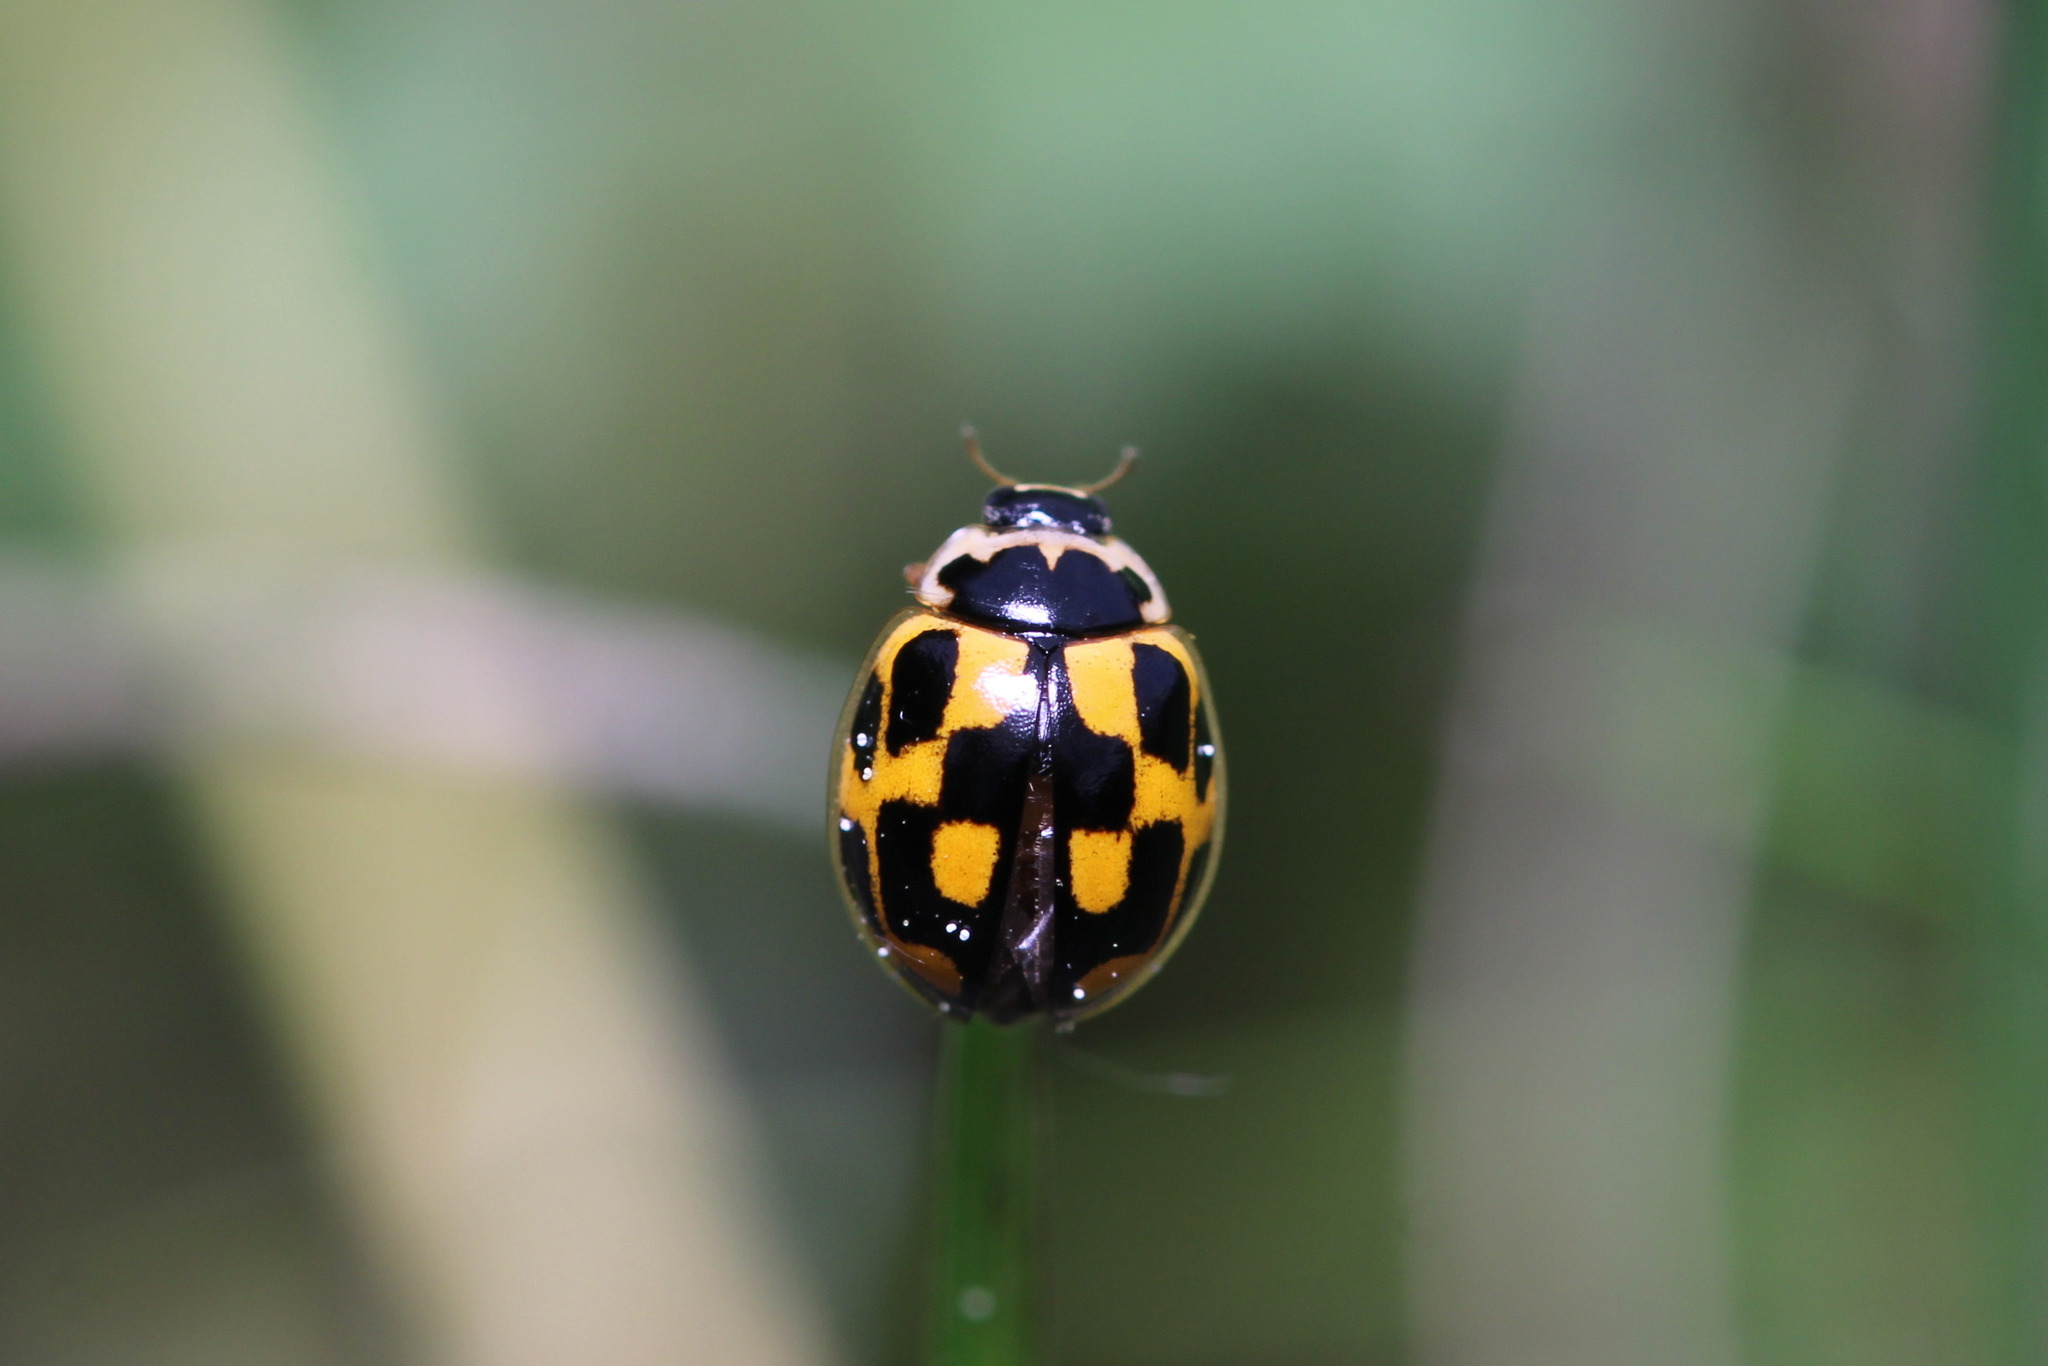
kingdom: Animalia
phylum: Arthropoda
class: Insecta
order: Coleoptera
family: Coccinellidae
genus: Propylaea
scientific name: Propylaea quatuordecimpunctata
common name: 14-spotted ladybird beetle
